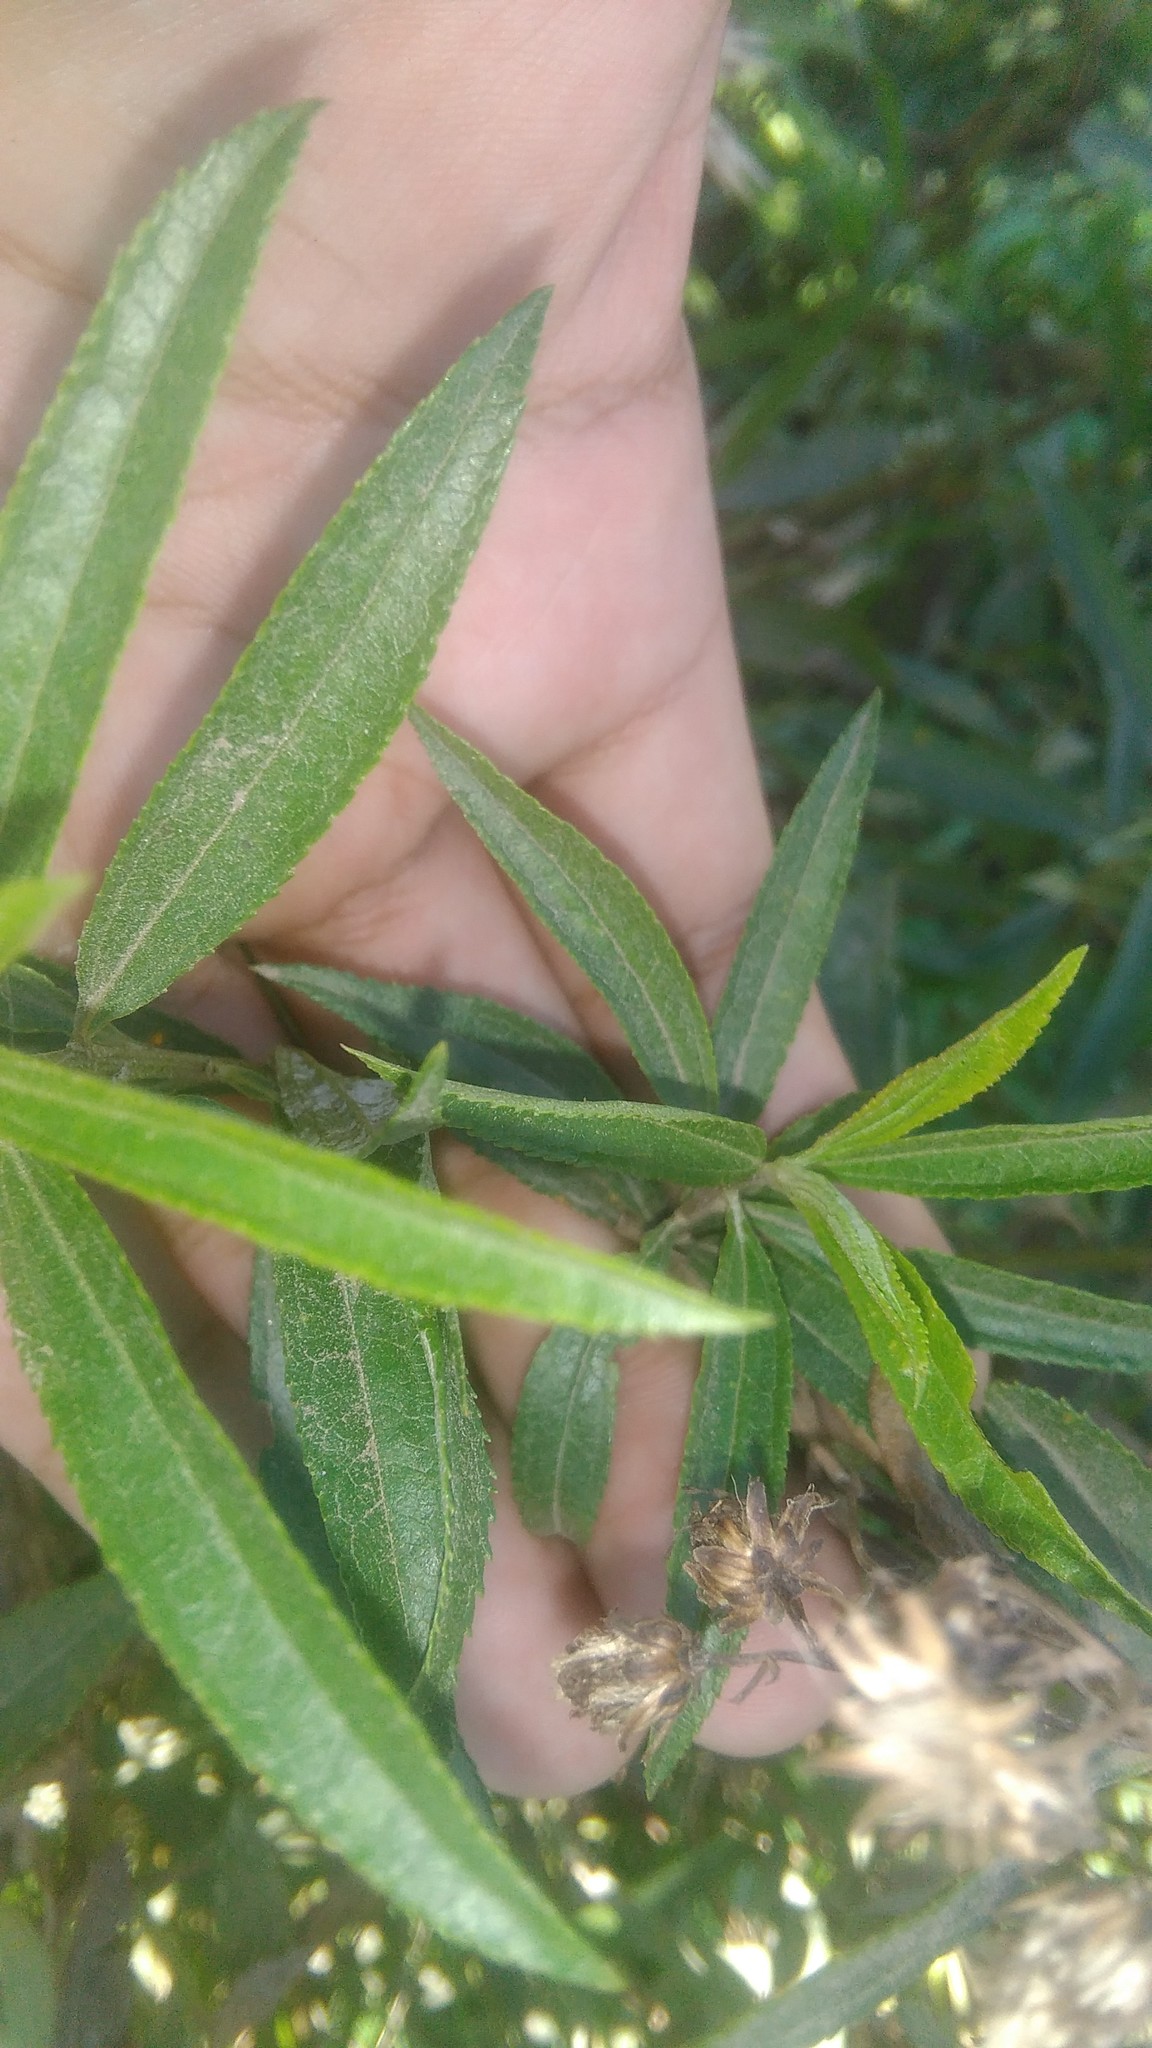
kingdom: Plantae
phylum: Tracheophyta
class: Magnoliopsida
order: Asterales
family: Asteraceae
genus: Baccharis
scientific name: Baccharis punctulata
